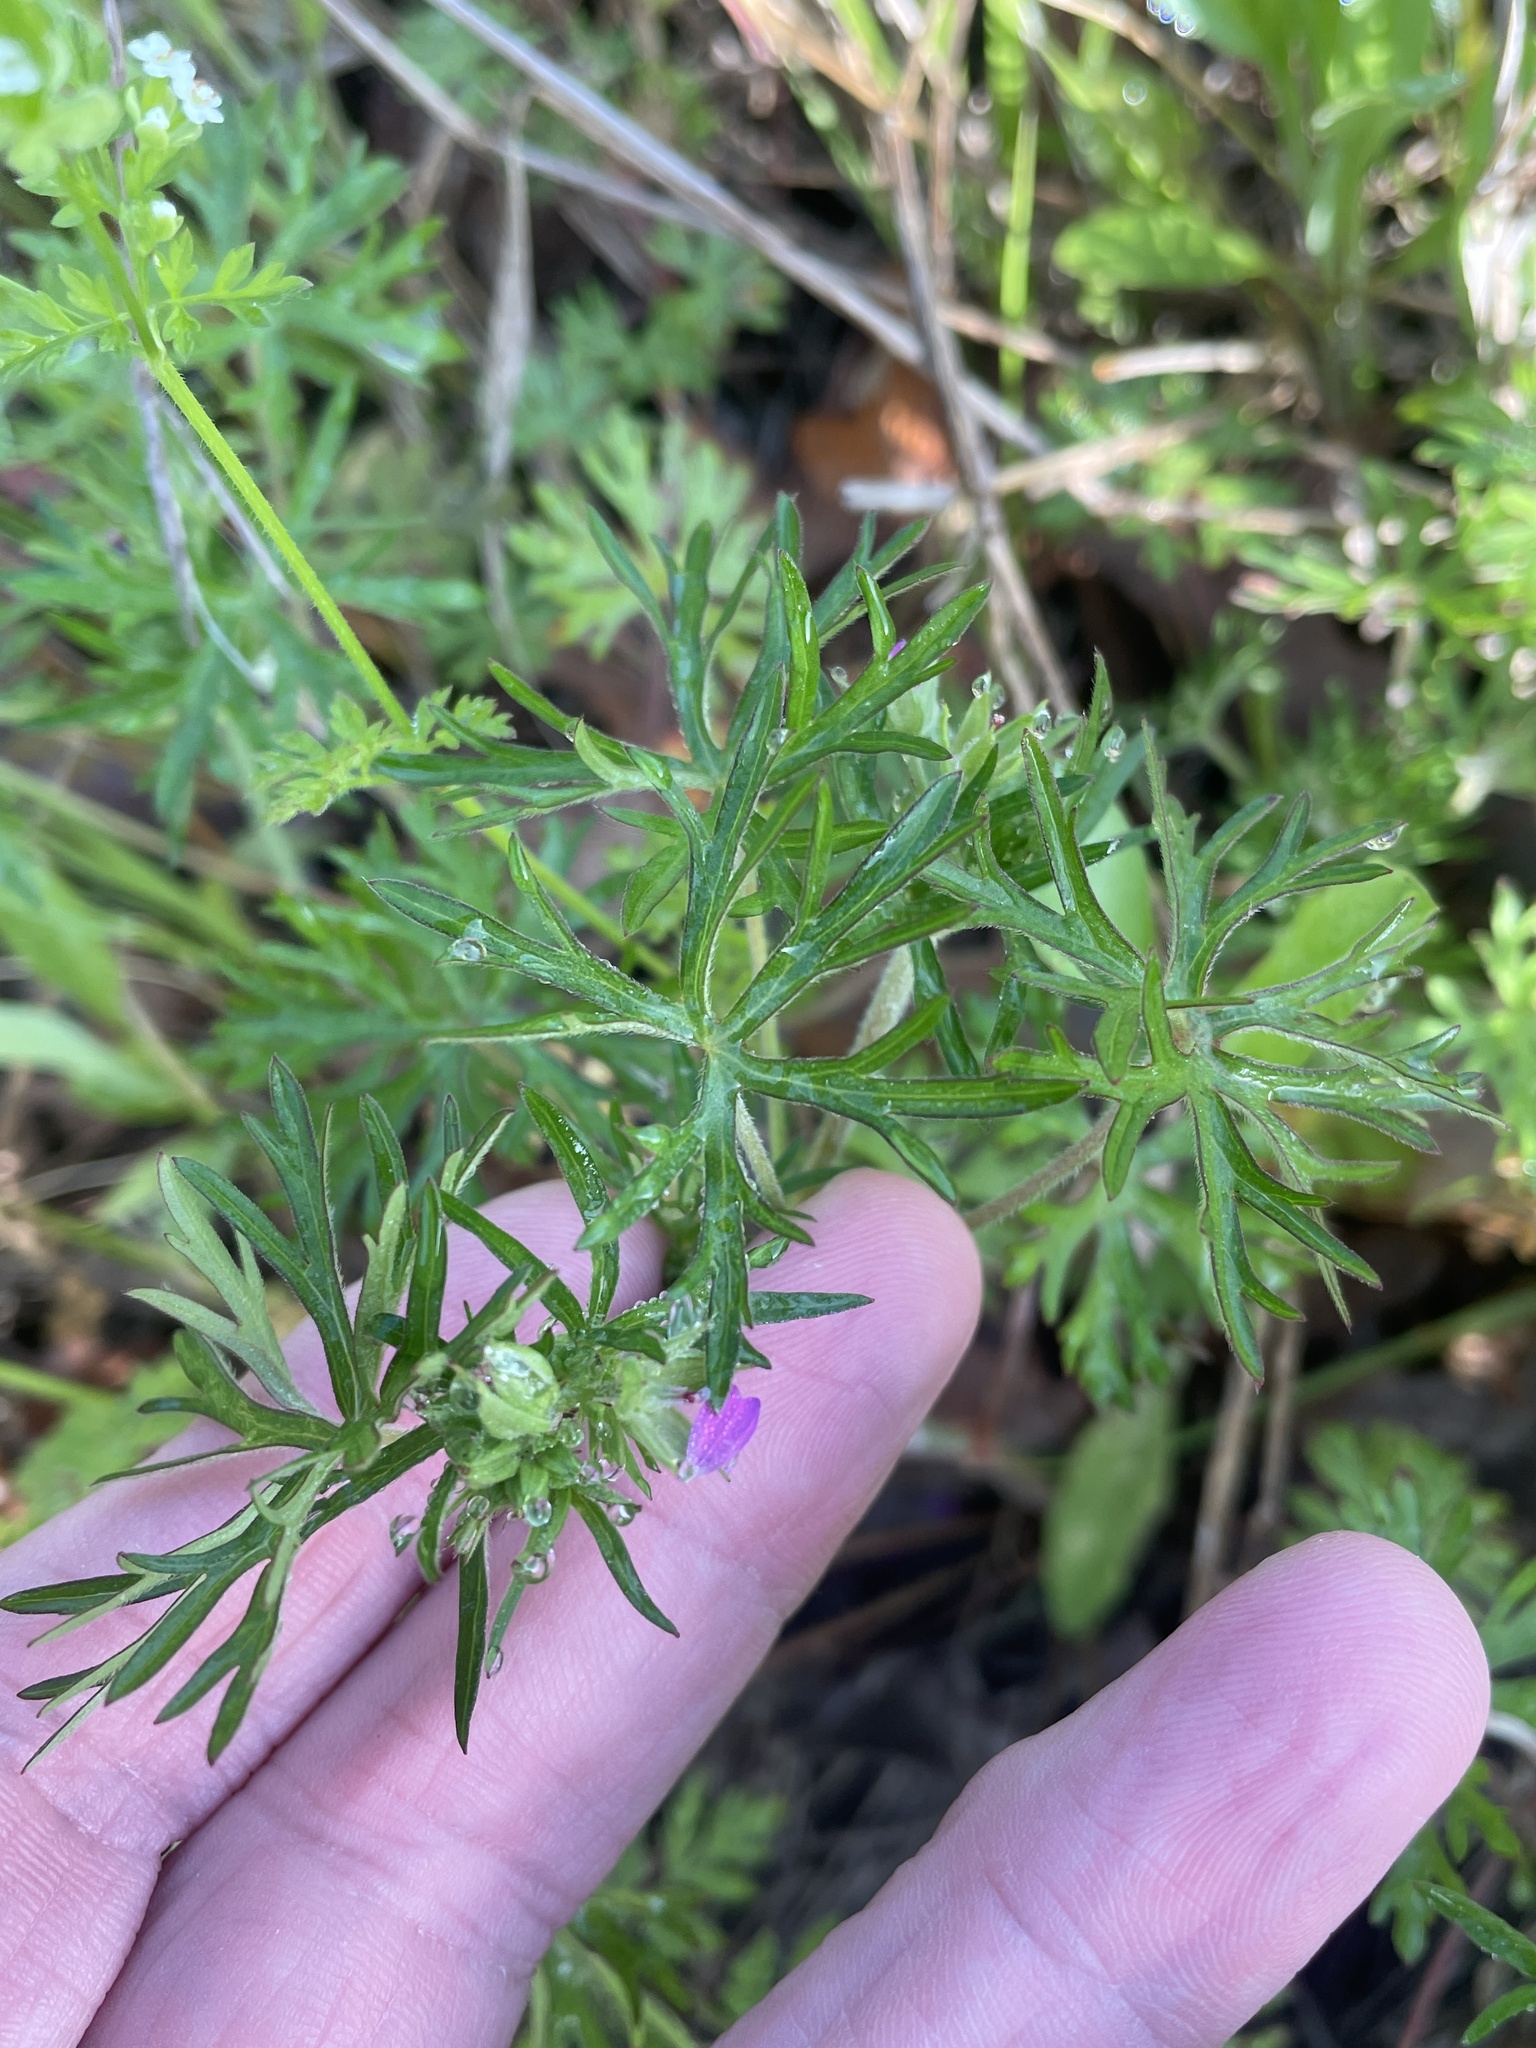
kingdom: Plantae
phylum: Tracheophyta
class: Magnoliopsida
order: Geraniales
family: Geraniaceae
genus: Geranium
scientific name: Geranium dissectum
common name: Cut-leaved crane's-bill
